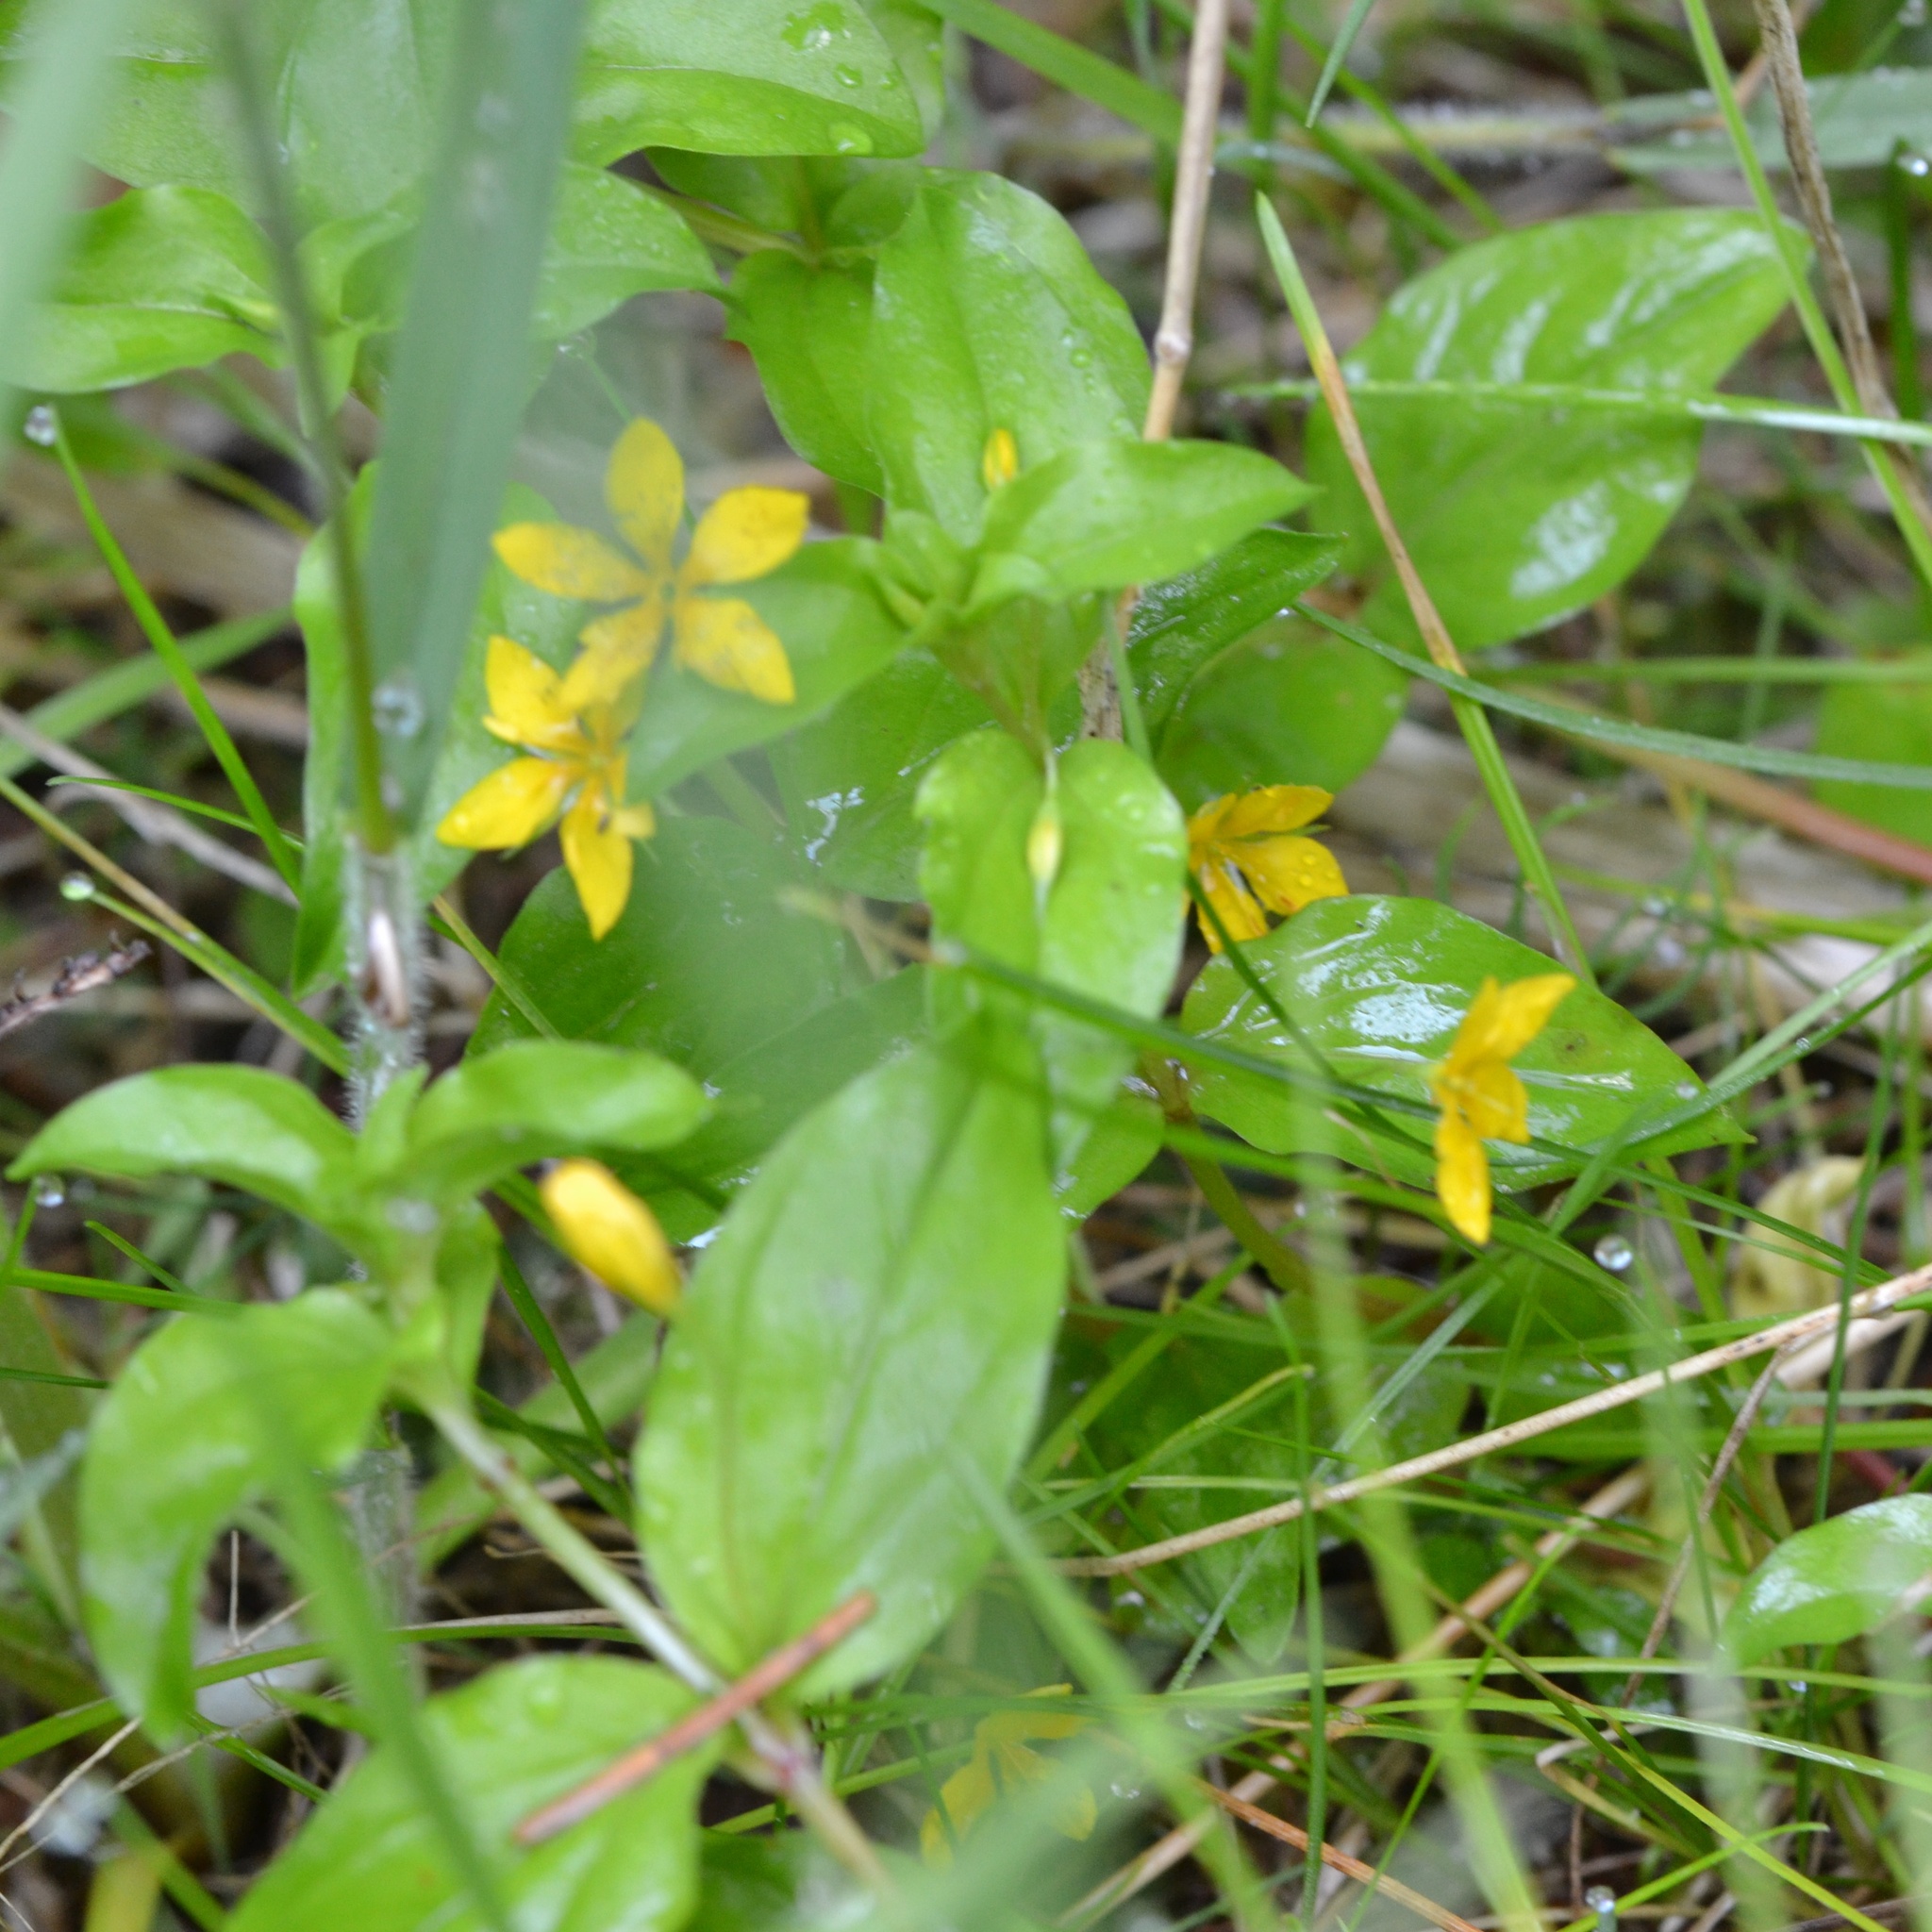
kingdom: Plantae
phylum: Tracheophyta
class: Magnoliopsida
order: Ericales
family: Primulaceae
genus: Lysimachia
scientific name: Lysimachia nemorum
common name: Yellow pimpernel
